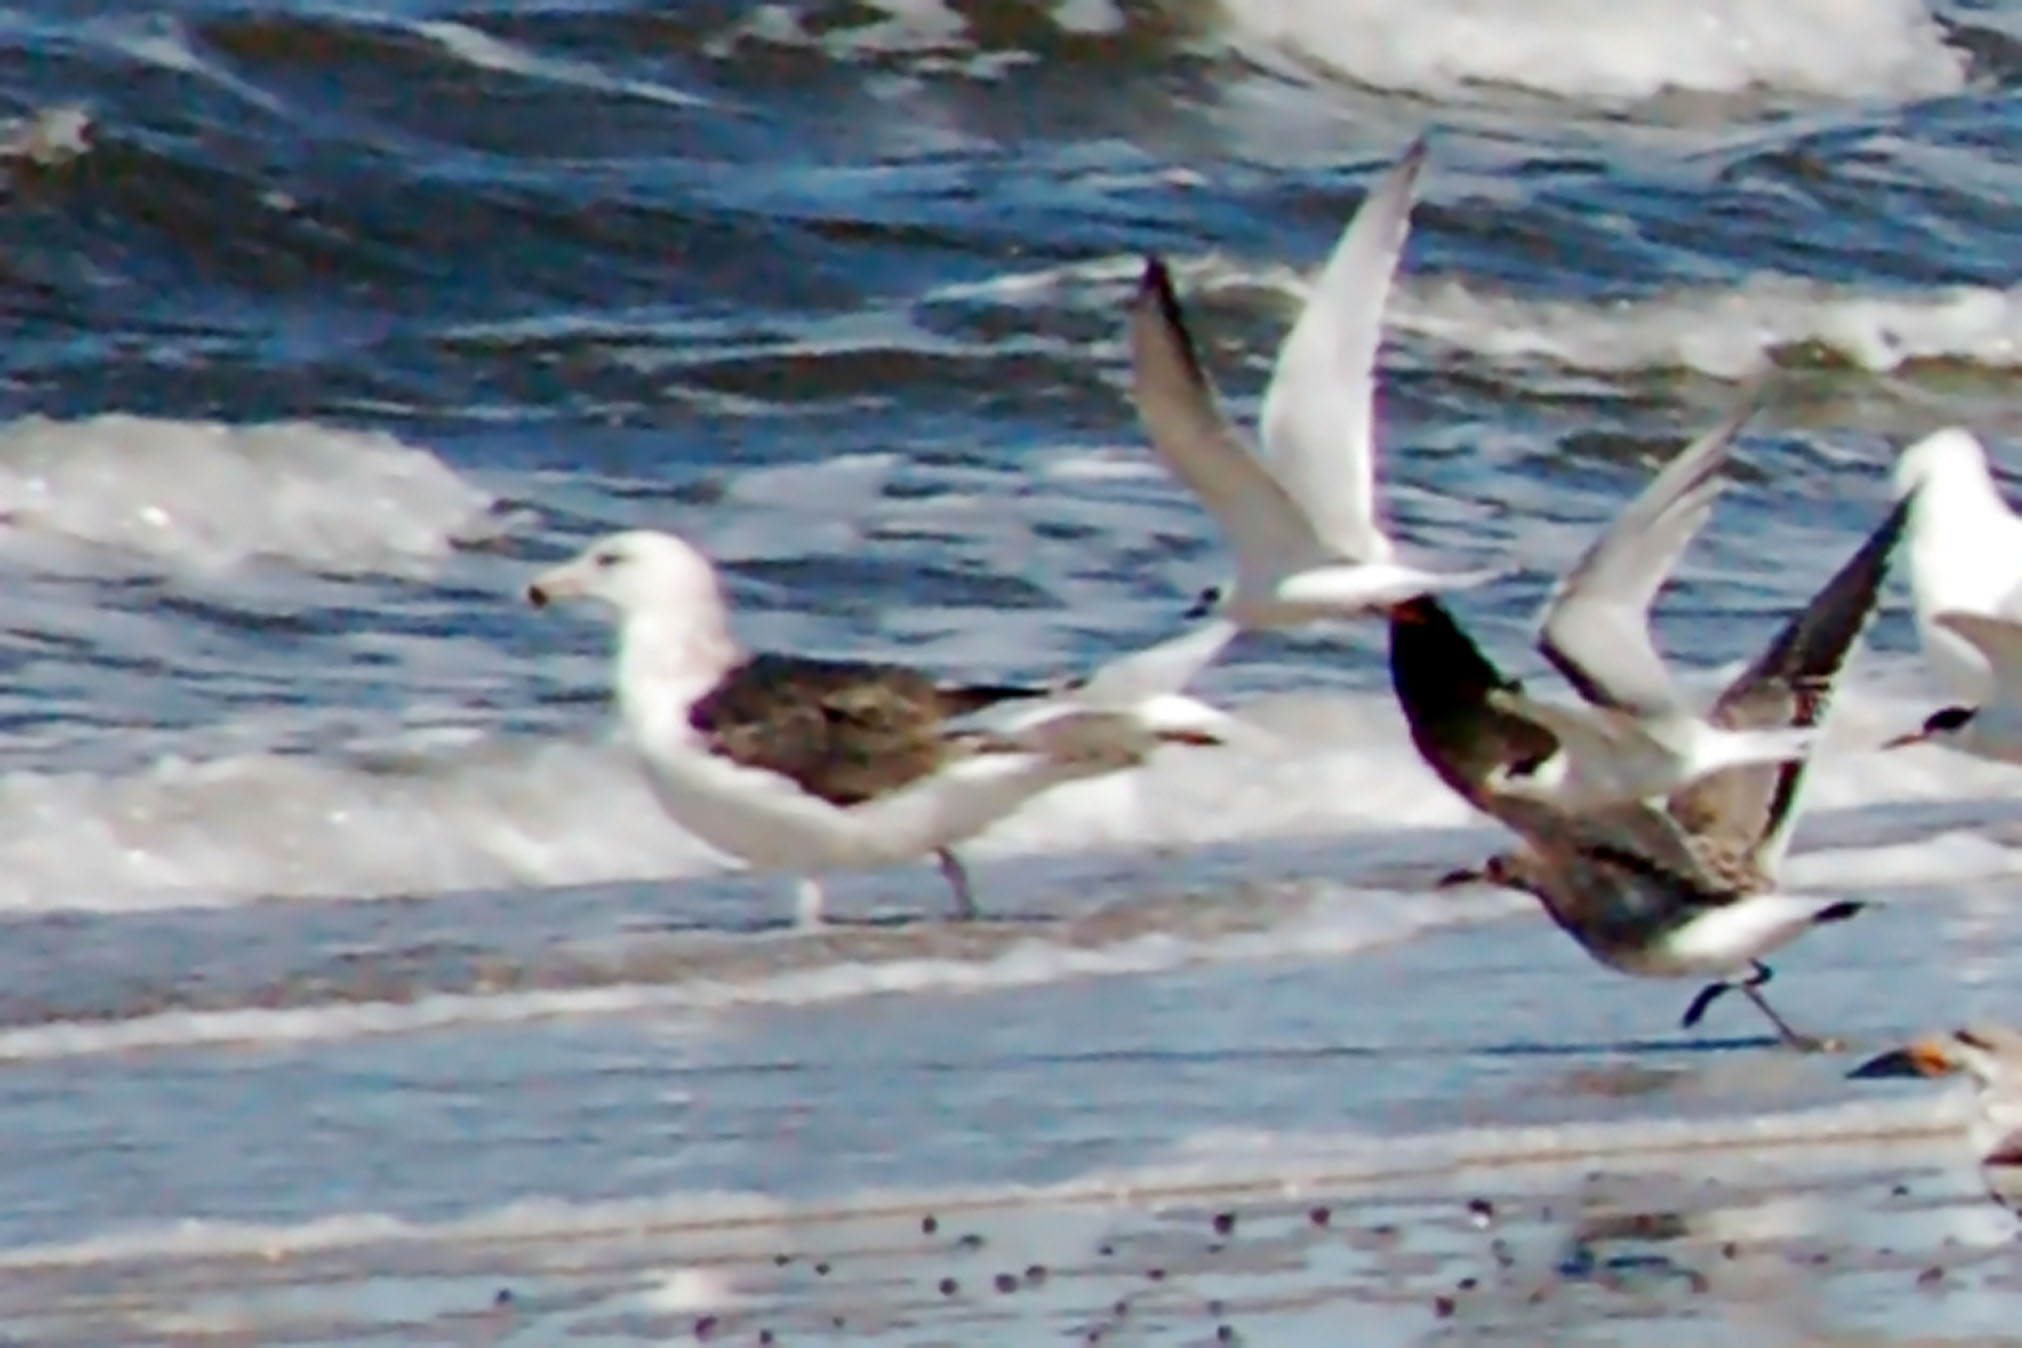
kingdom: Animalia
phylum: Chordata
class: Aves
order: Charadriiformes
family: Laridae
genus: Larus
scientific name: Larus marinus
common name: Great black-backed gull
